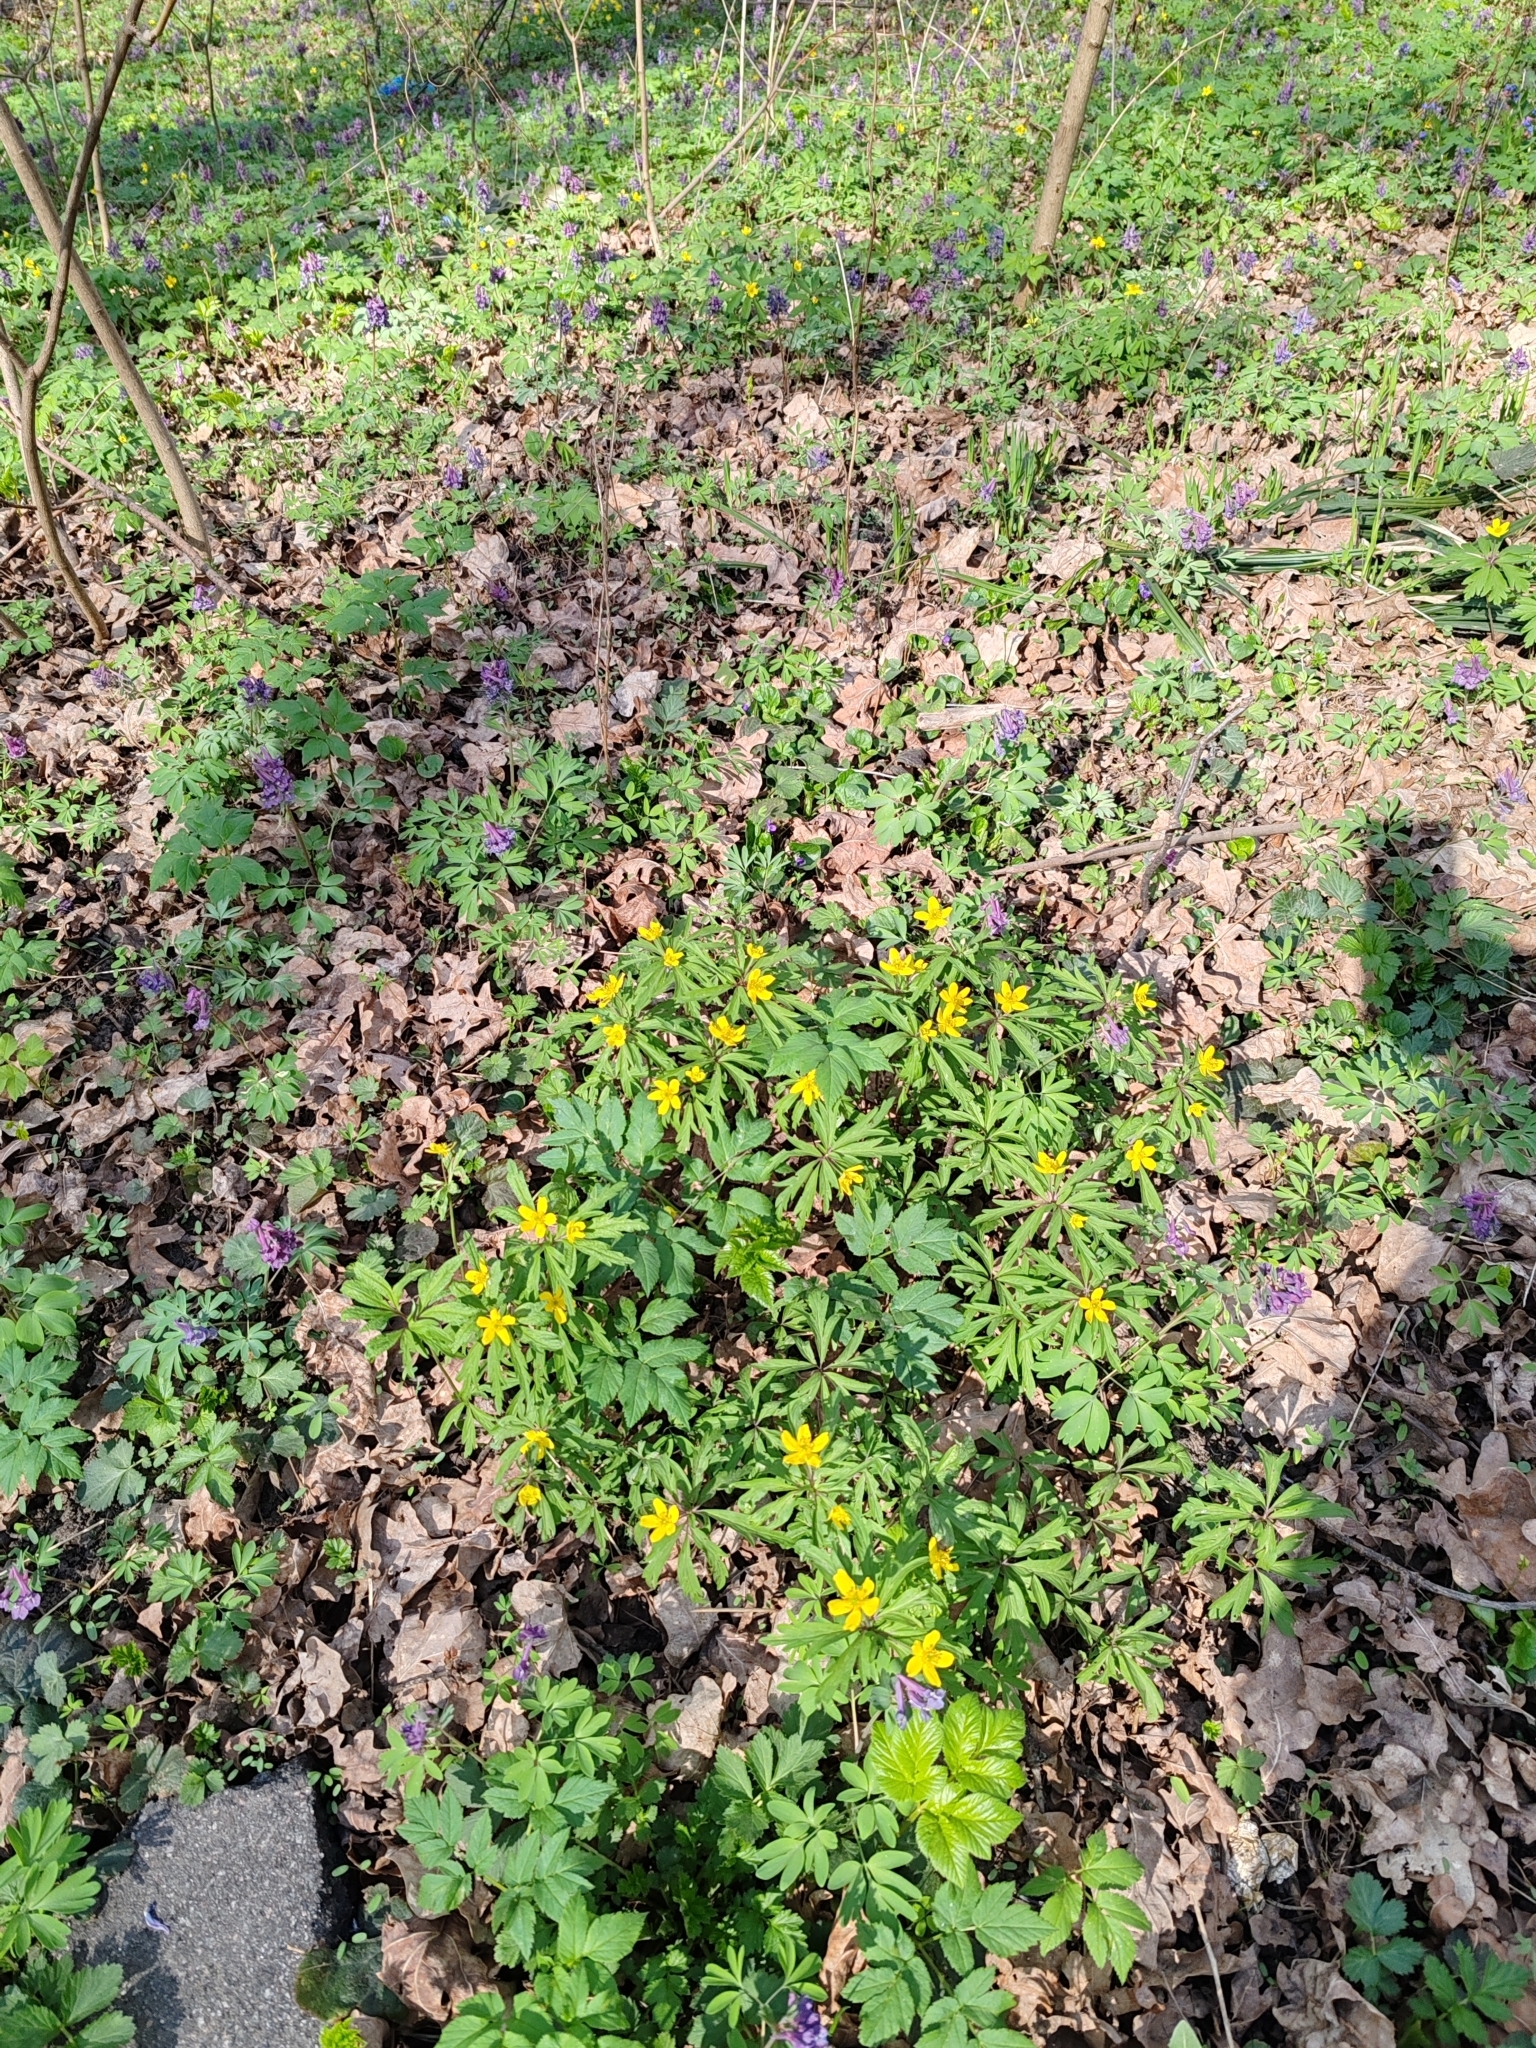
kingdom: Plantae
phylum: Tracheophyta
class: Magnoliopsida
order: Ranunculales
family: Ranunculaceae
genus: Anemone
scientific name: Anemone ranunculoides
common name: Yellow anemone
